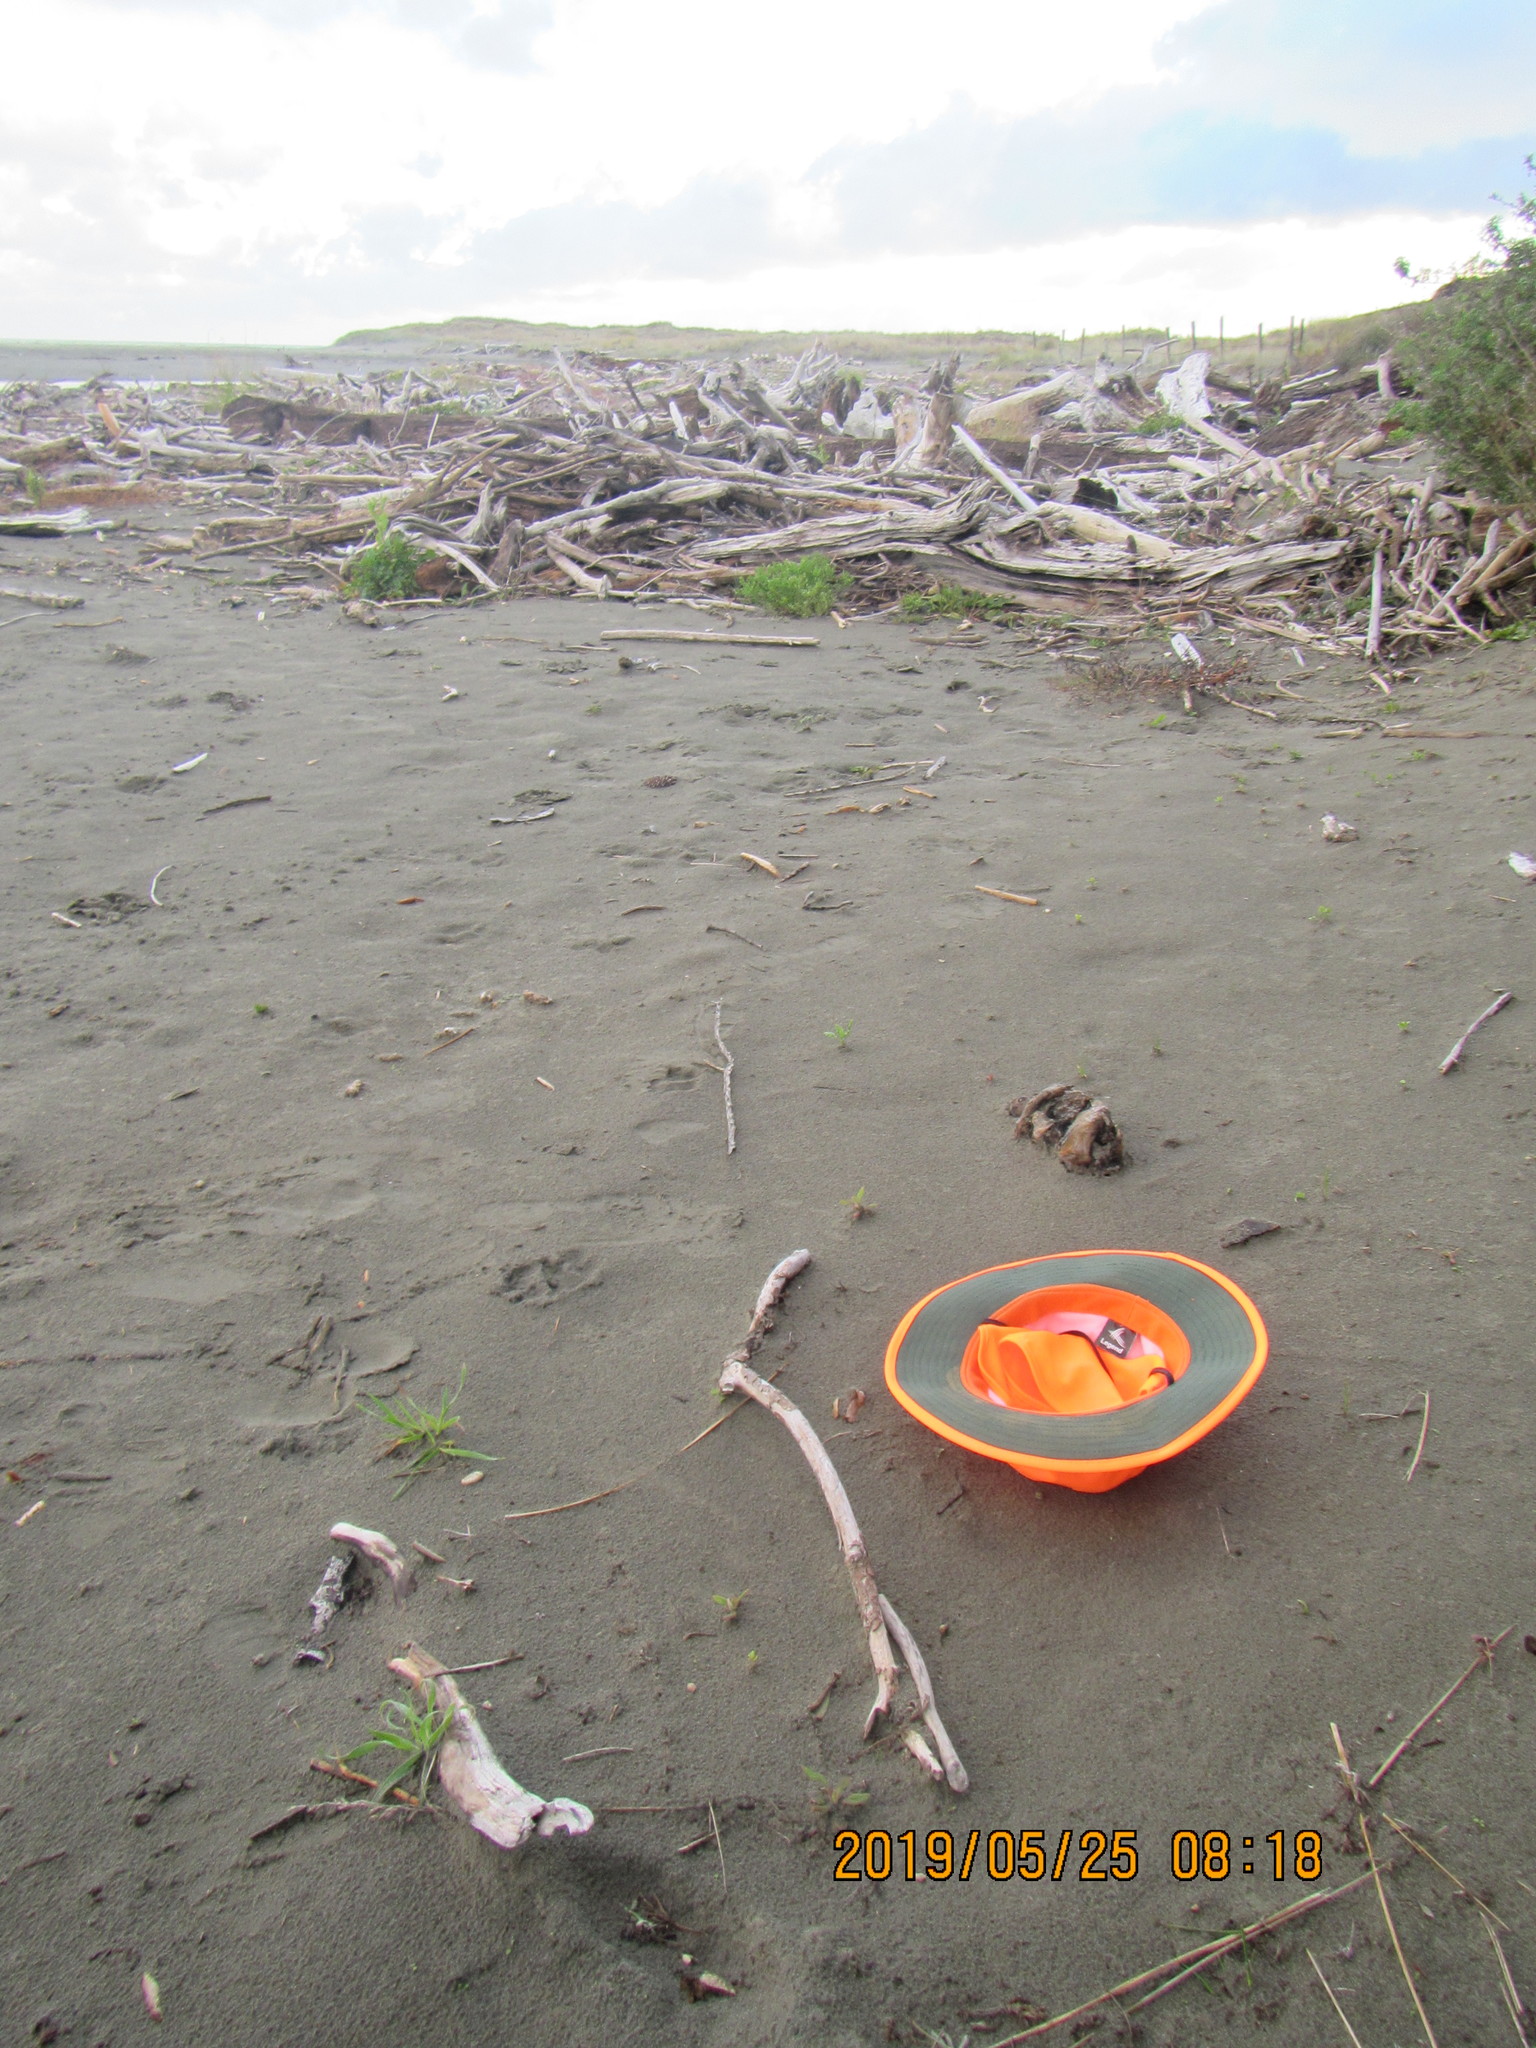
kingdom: Plantae
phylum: Tracheophyta
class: Magnoliopsida
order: Caryophyllales
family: Aizoaceae
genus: Tetragonia
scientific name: Tetragonia implexicoma
